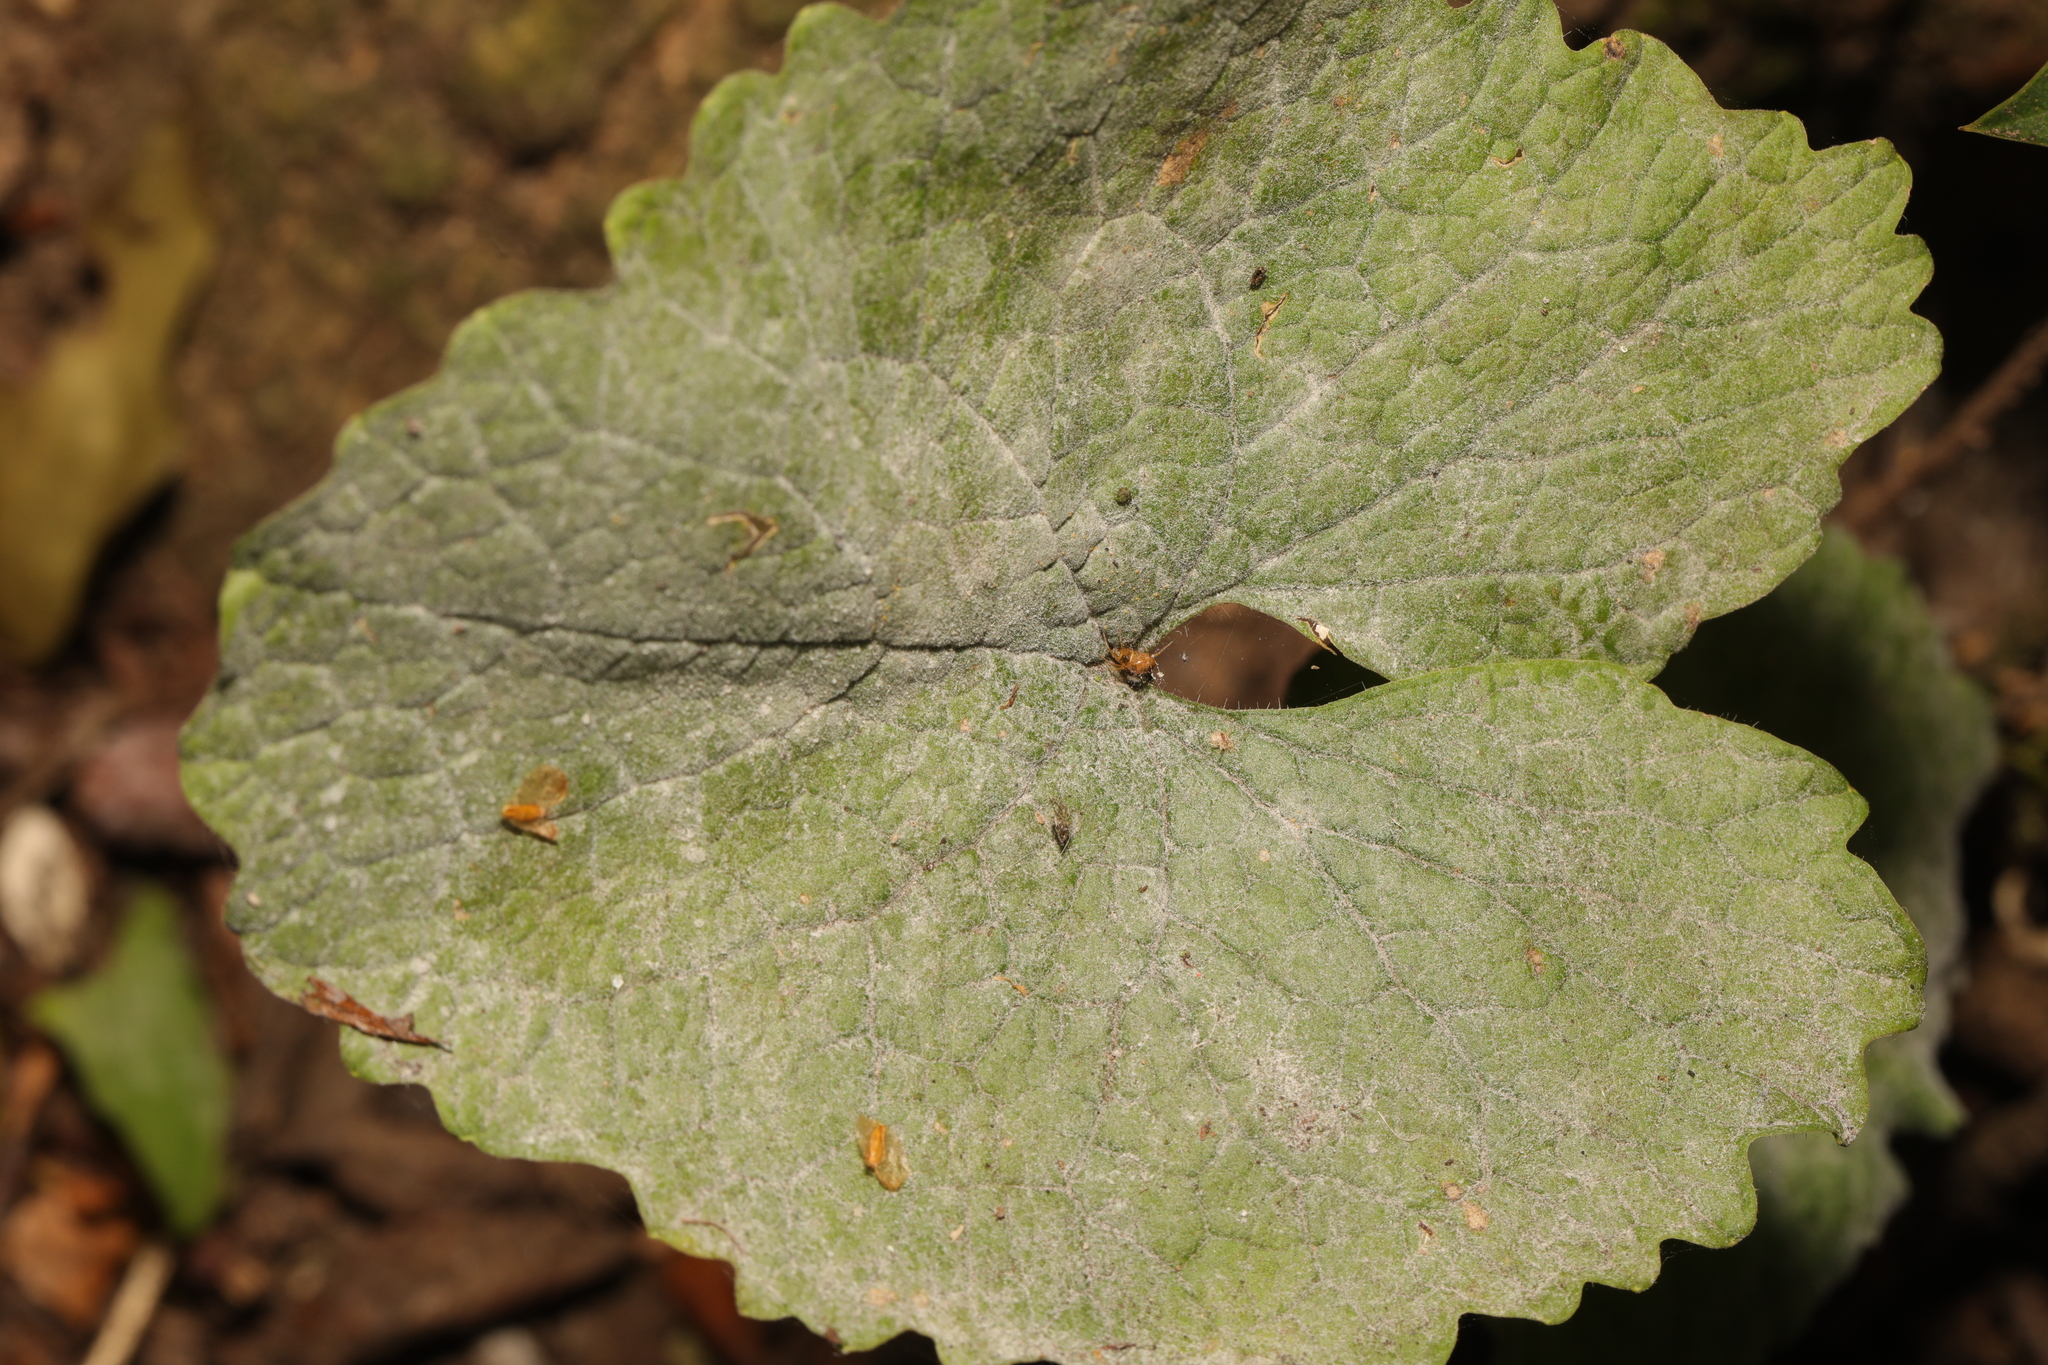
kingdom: Fungi
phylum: Ascomycota
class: Leotiomycetes
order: Helotiales
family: Erysiphaceae
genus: Erysiphe
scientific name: Erysiphe cruciferarum
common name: Brassica powdery mildew
